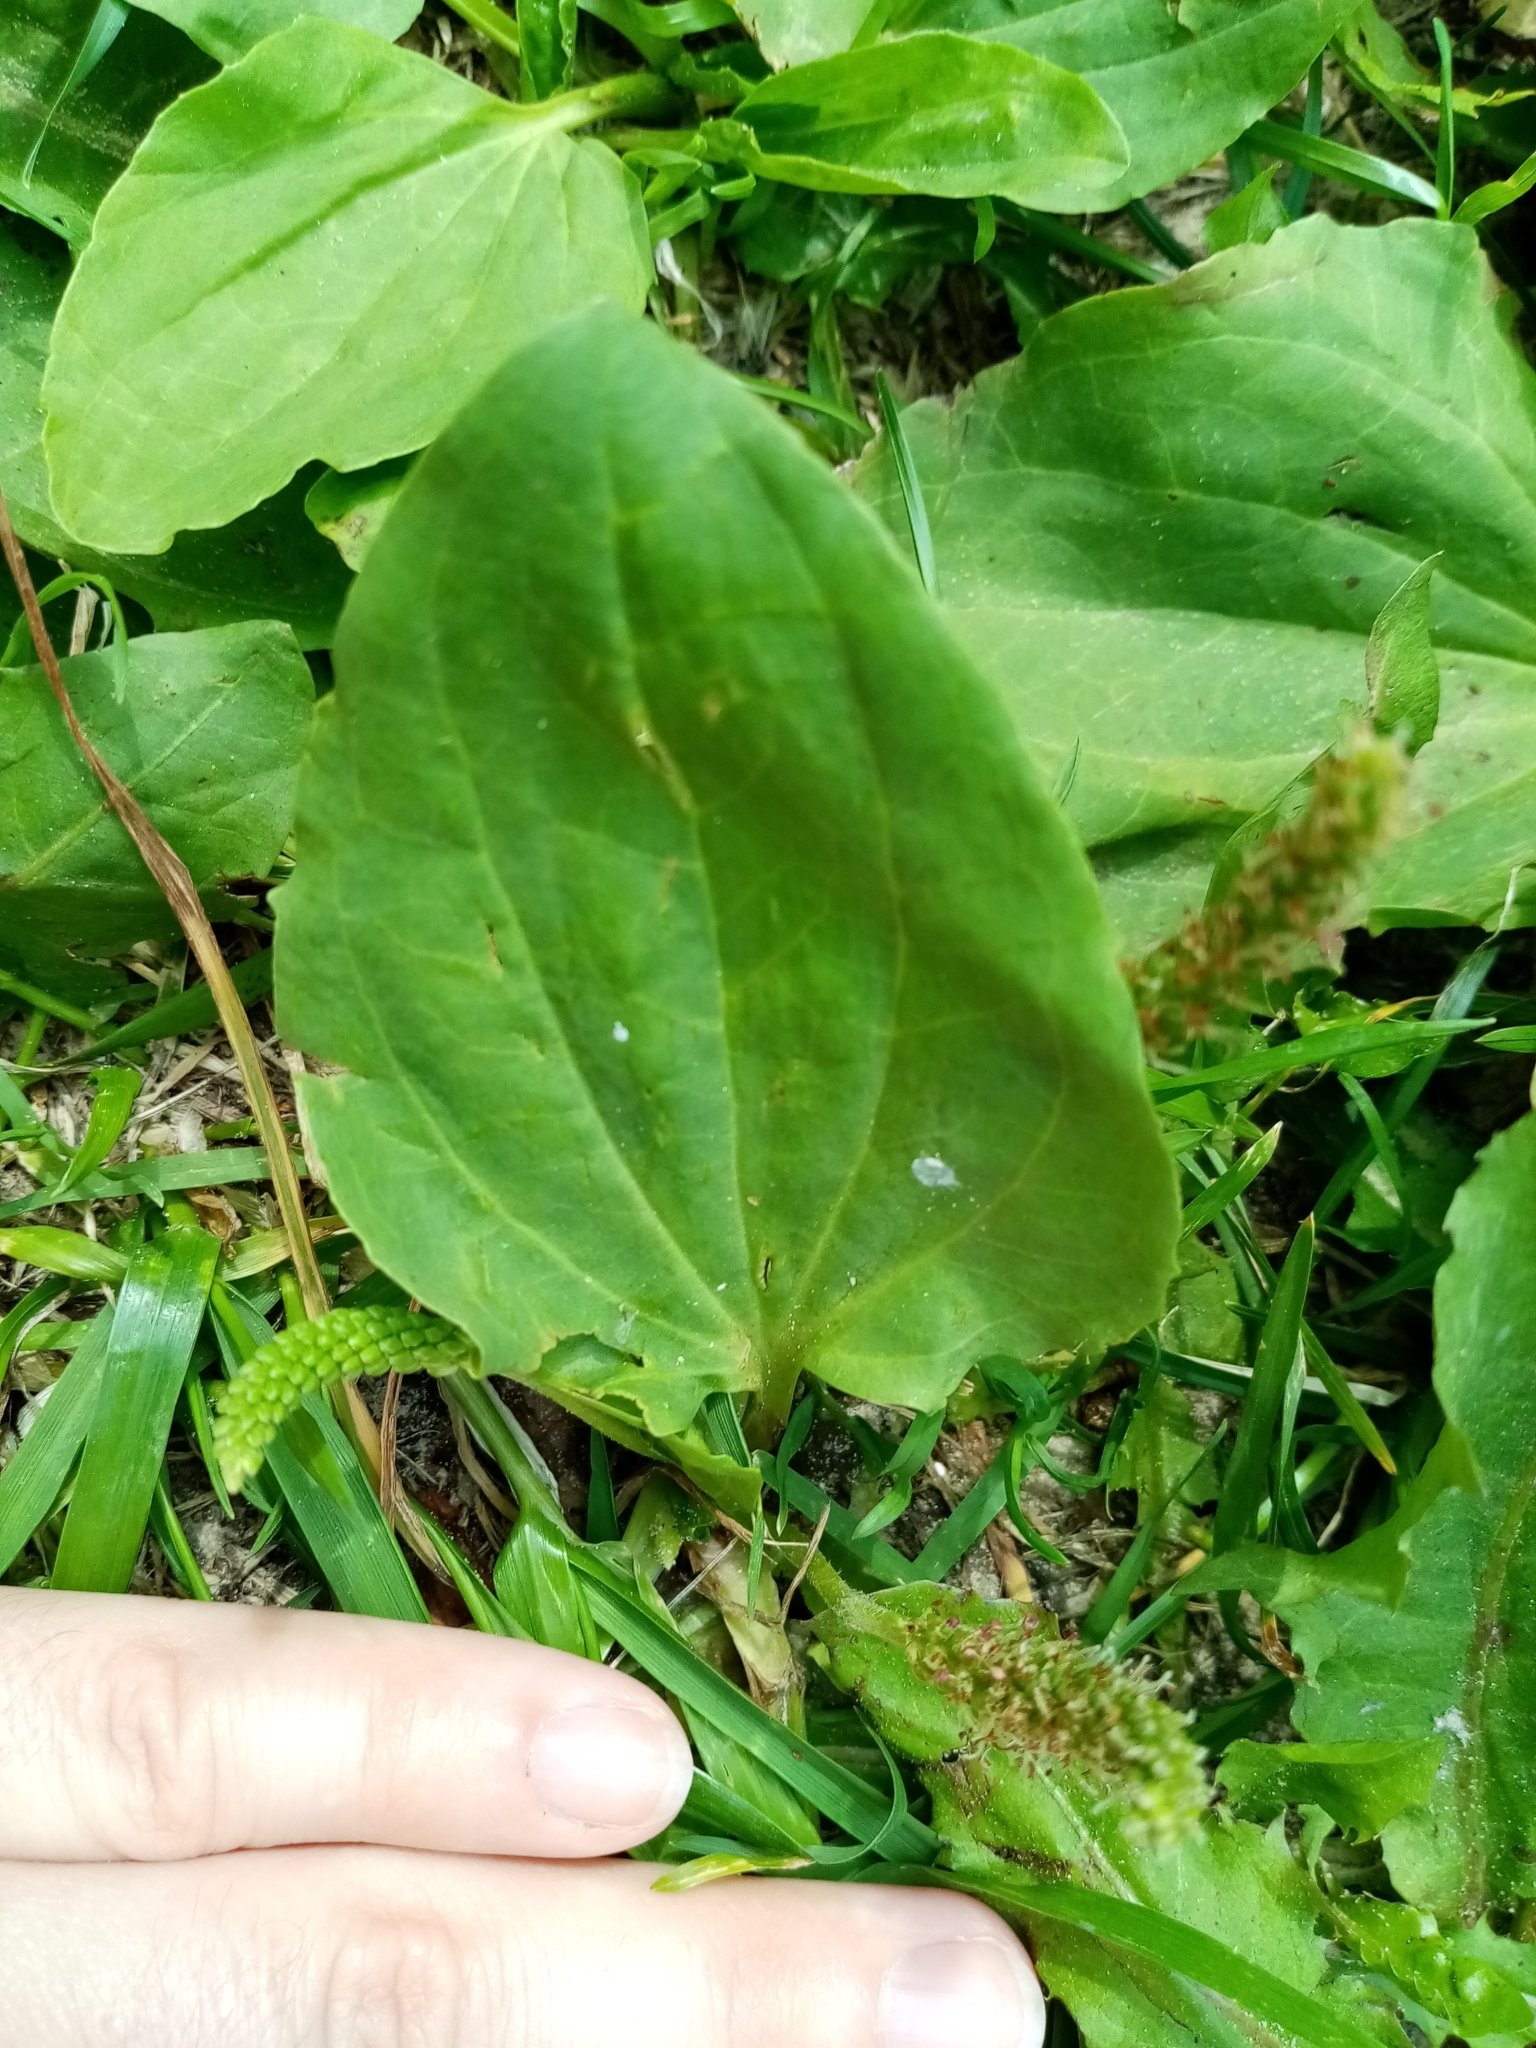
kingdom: Plantae
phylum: Tracheophyta
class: Magnoliopsida
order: Lamiales
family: Plantaginaceae
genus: Plantago
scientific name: Plantago major
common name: Common plantain
